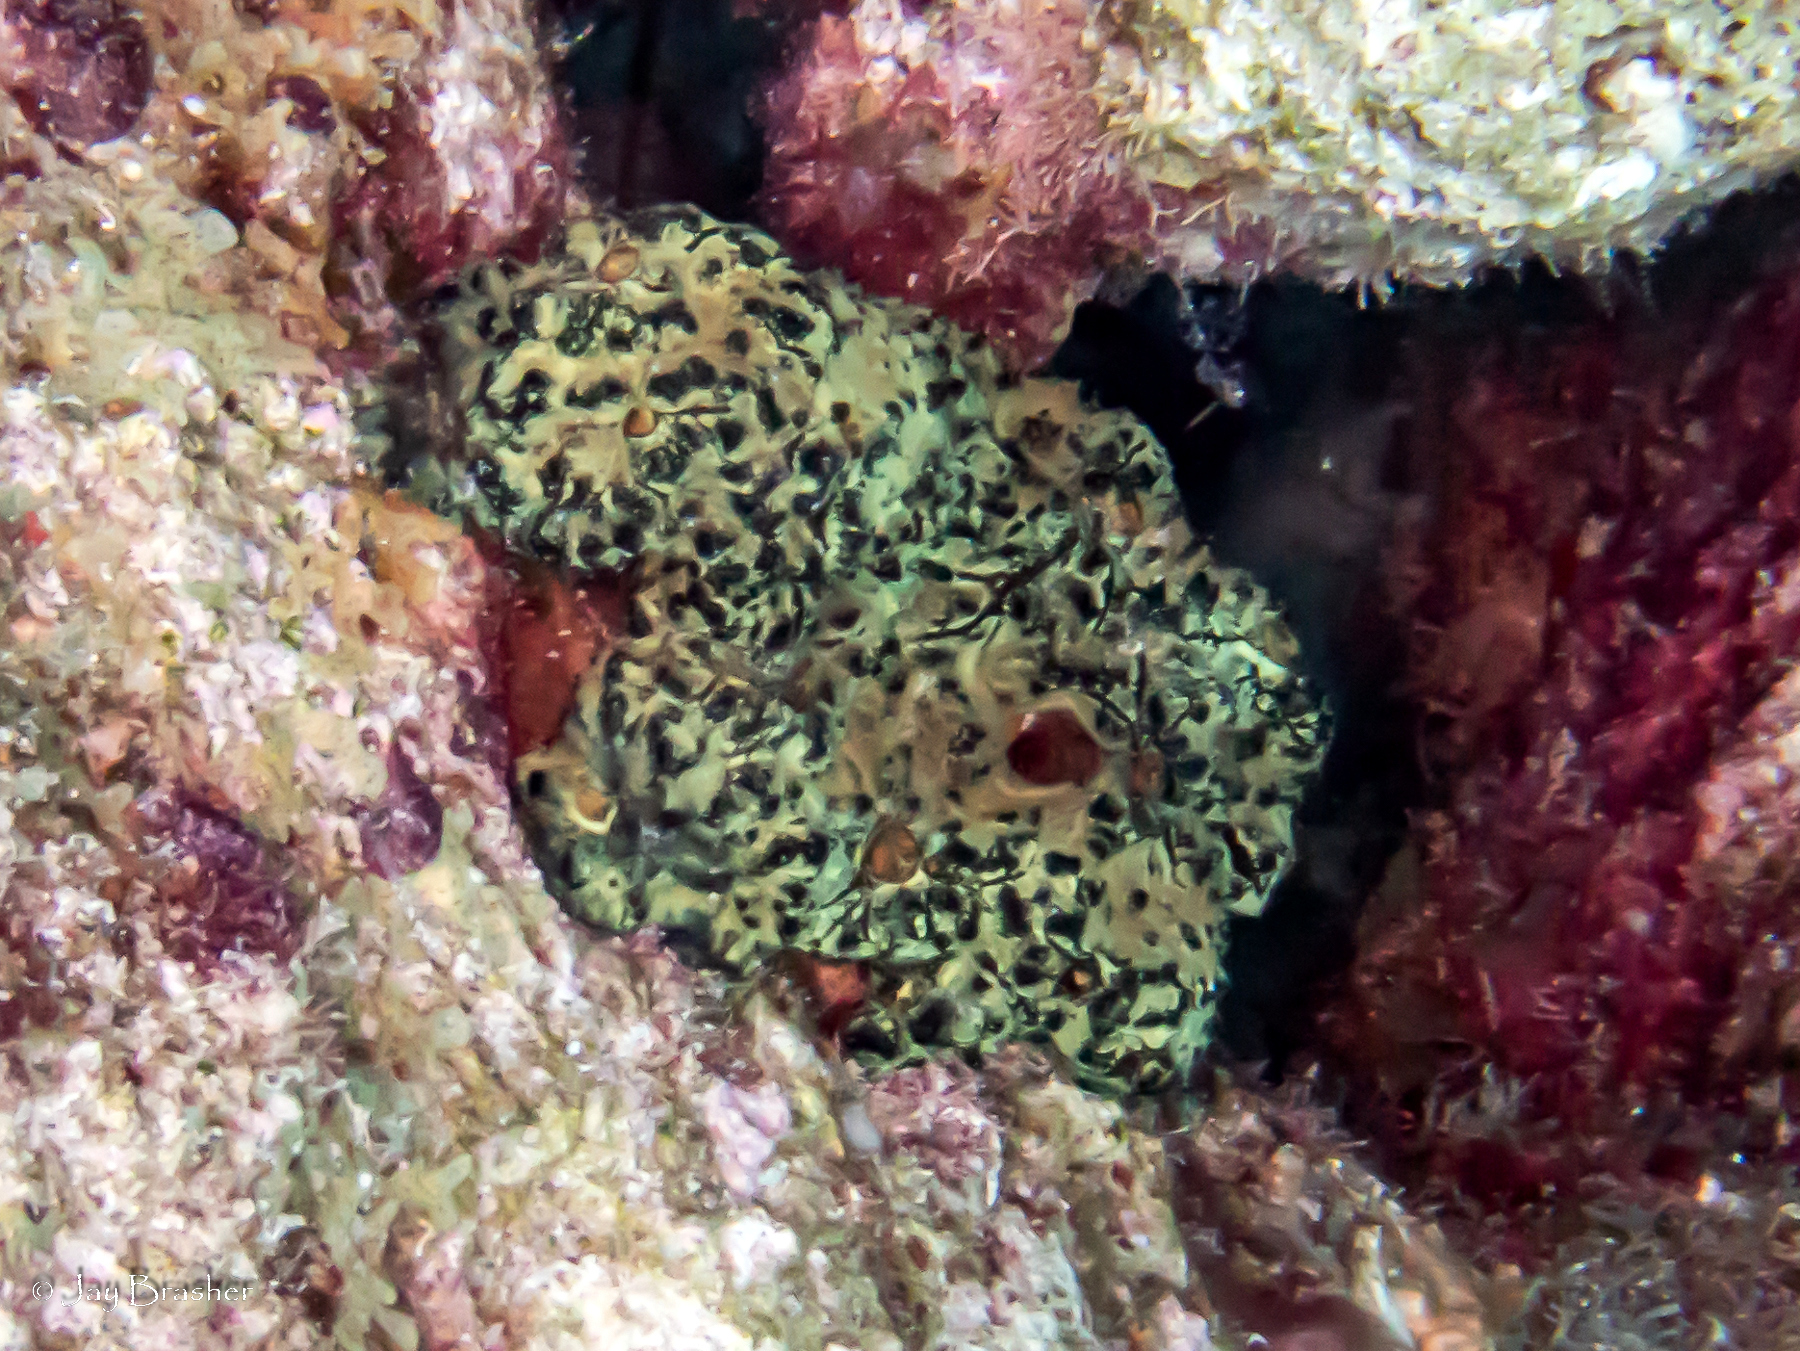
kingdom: Animalia
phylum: Porifera
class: Demospongiae
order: Poecilosclerida
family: Iotrochotidae
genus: Iotrochota
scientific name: Iotrochota birotulata
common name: Purple bleeding sponge
